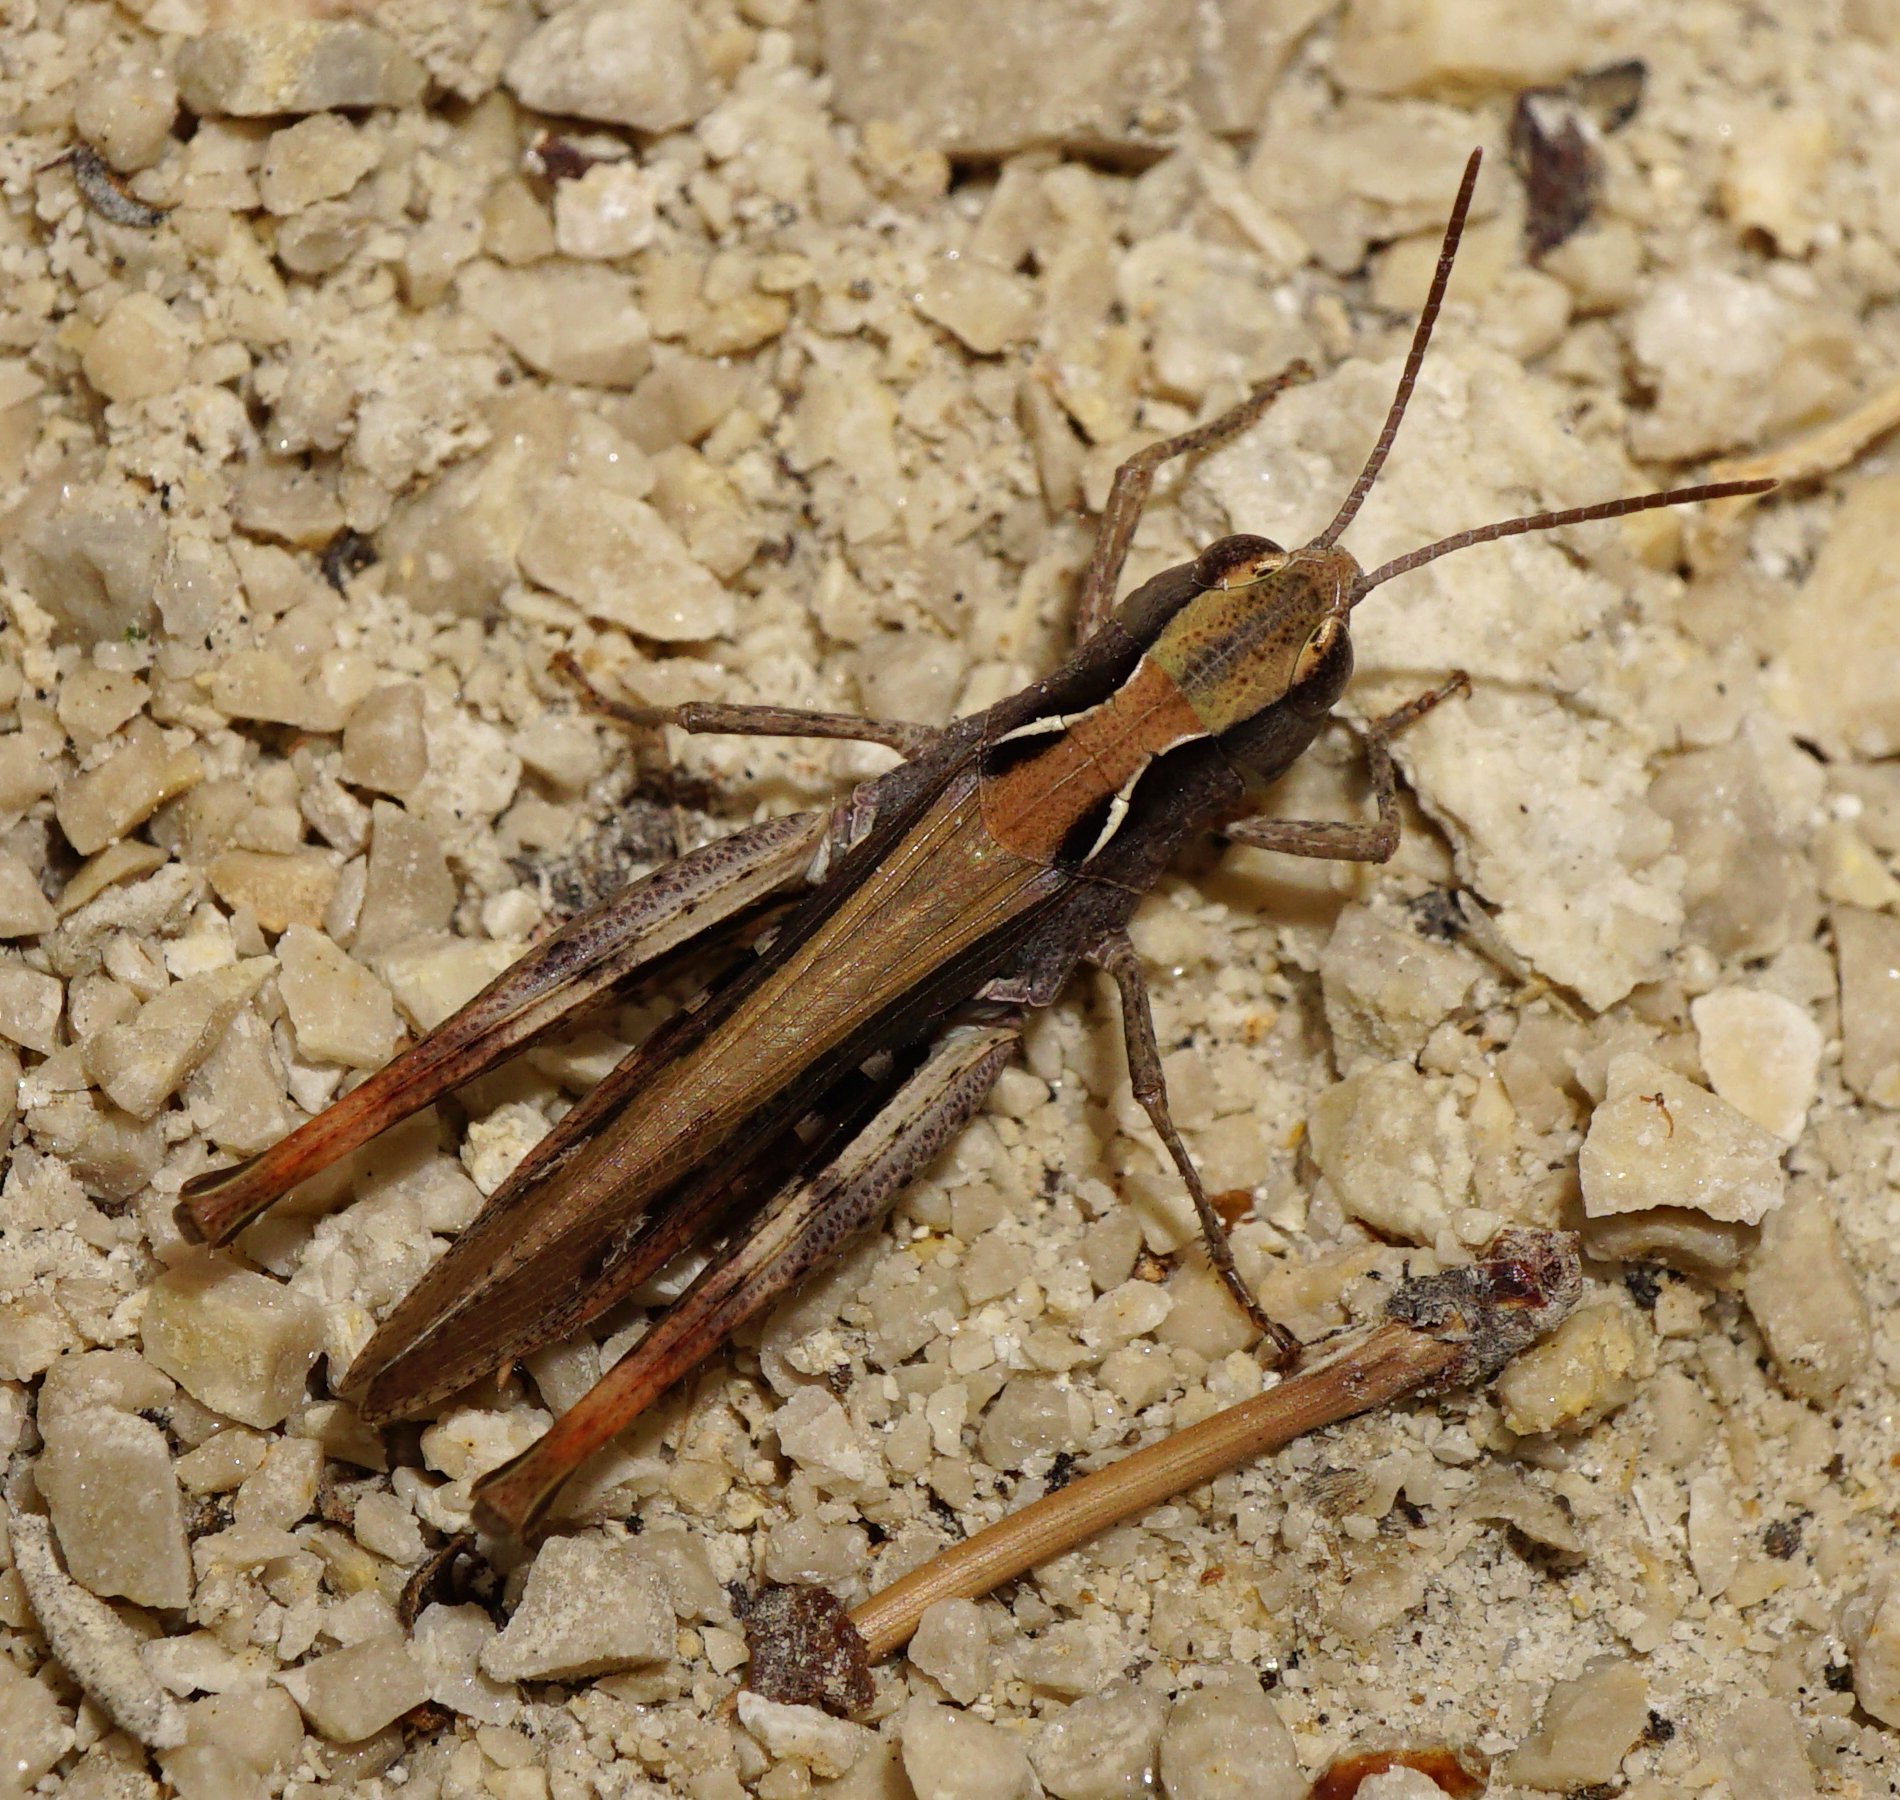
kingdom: Animalia
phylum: Arthropoda
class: Insecta
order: Orthoptera
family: Acrididae
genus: Chorthippus
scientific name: Chorthippus vagans
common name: Heath grasshopper
